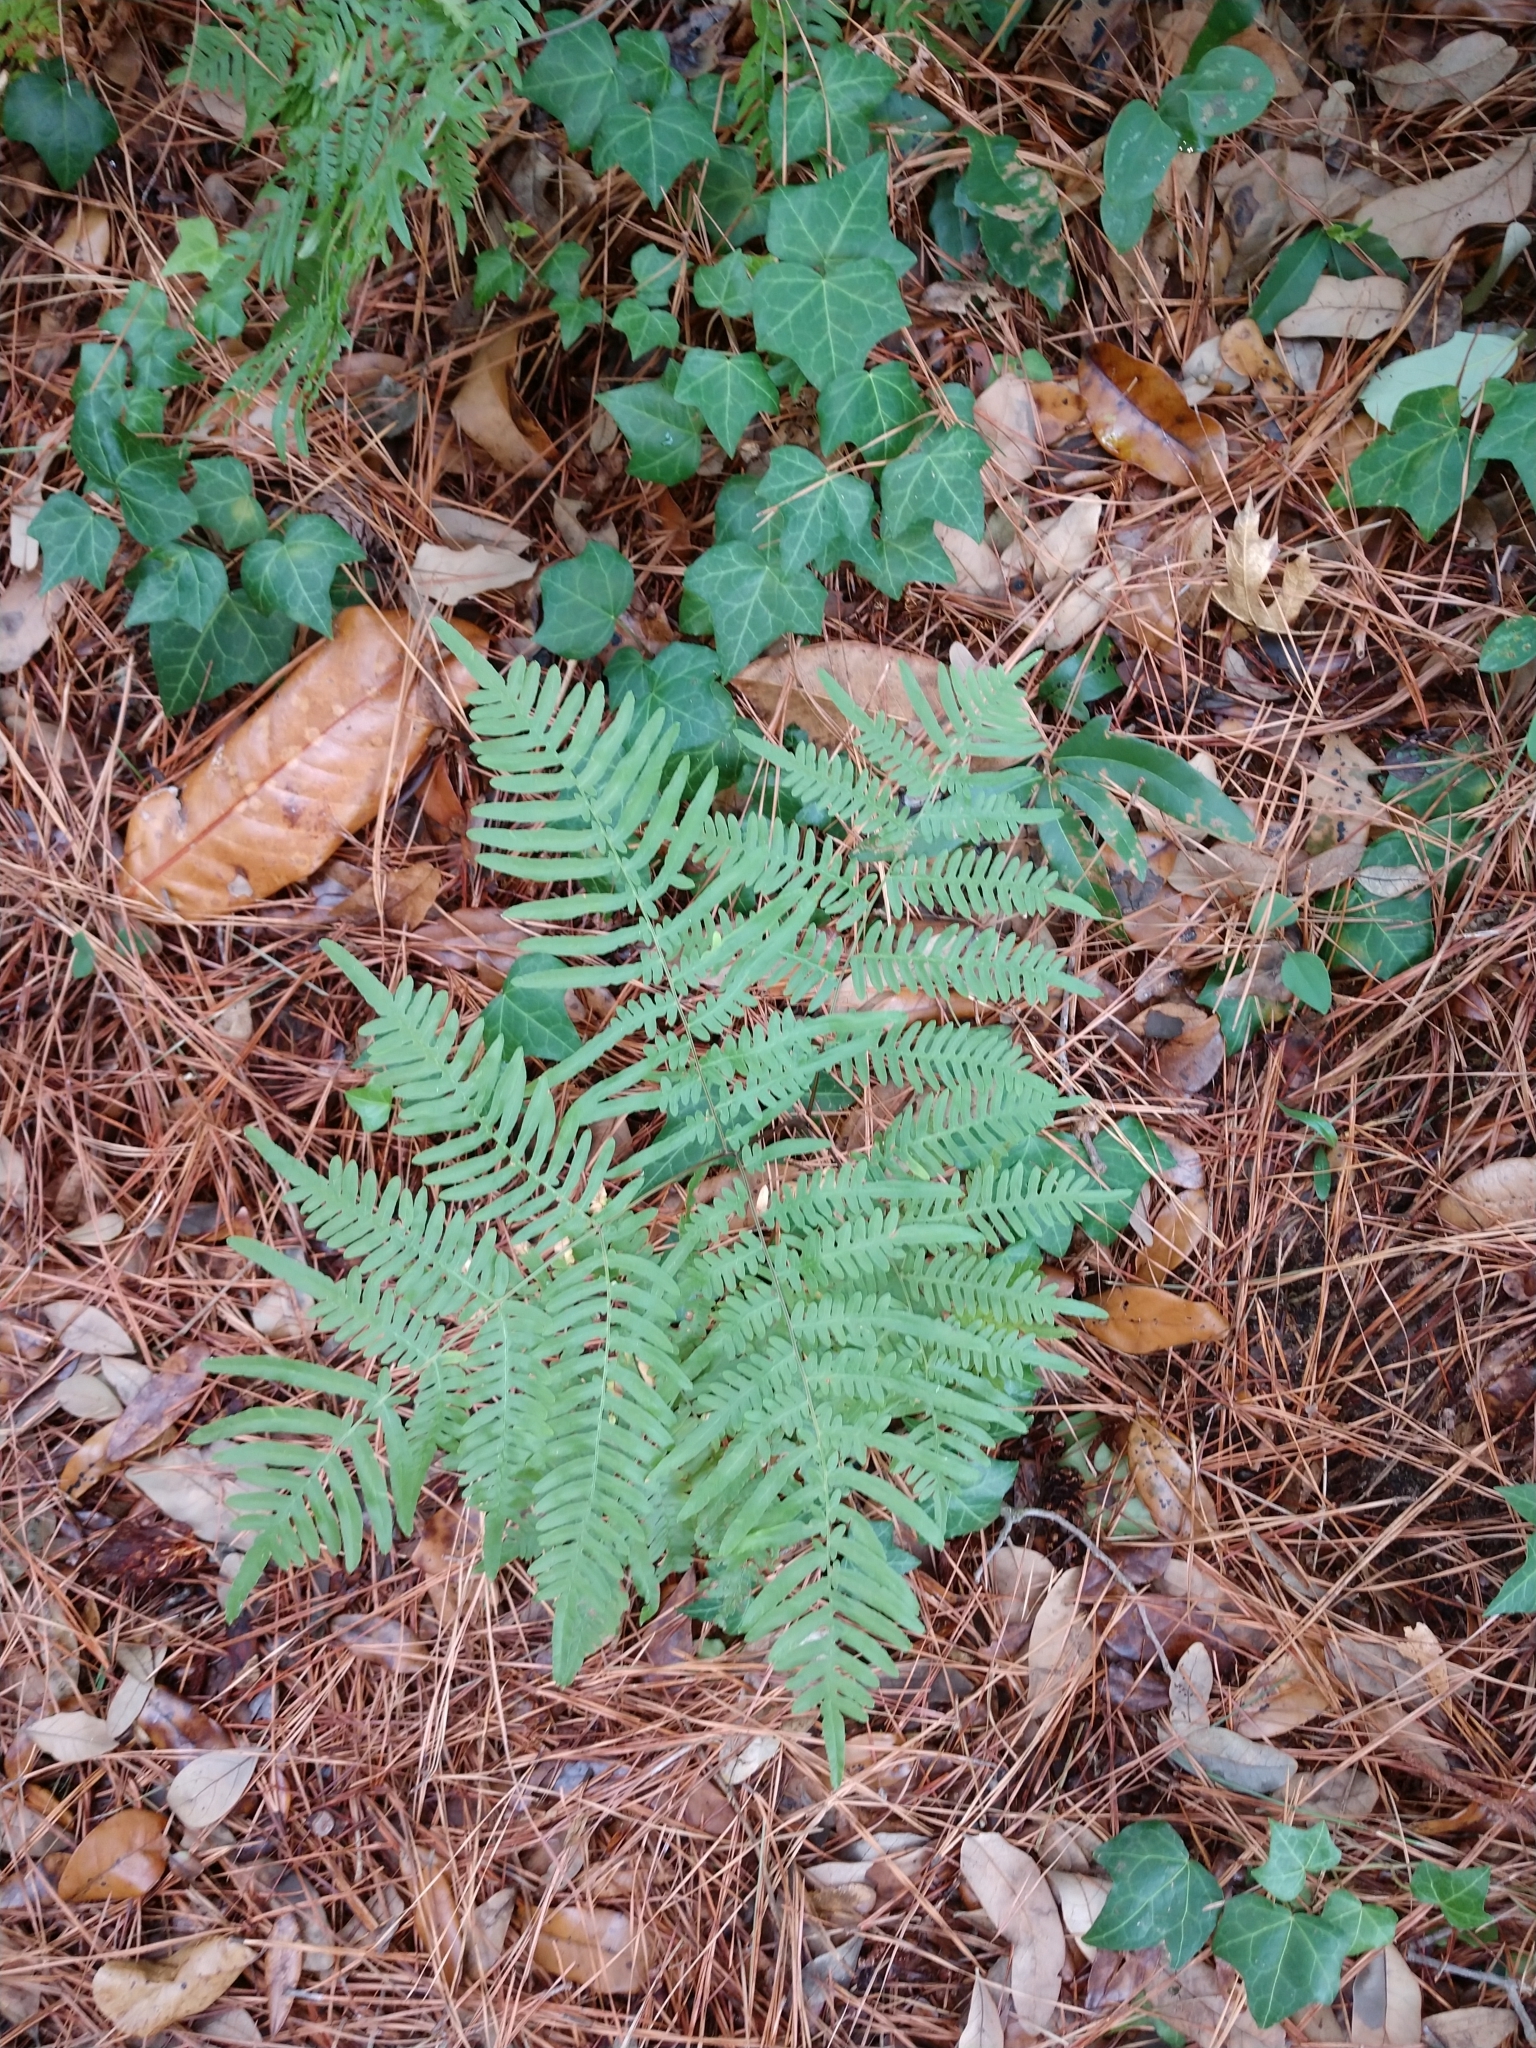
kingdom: Plantae
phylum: Tracheophyta
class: Polypodiopsida
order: Polypodiales
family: Dennstaedtiaceae
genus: Pteridium
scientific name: Pteridium
